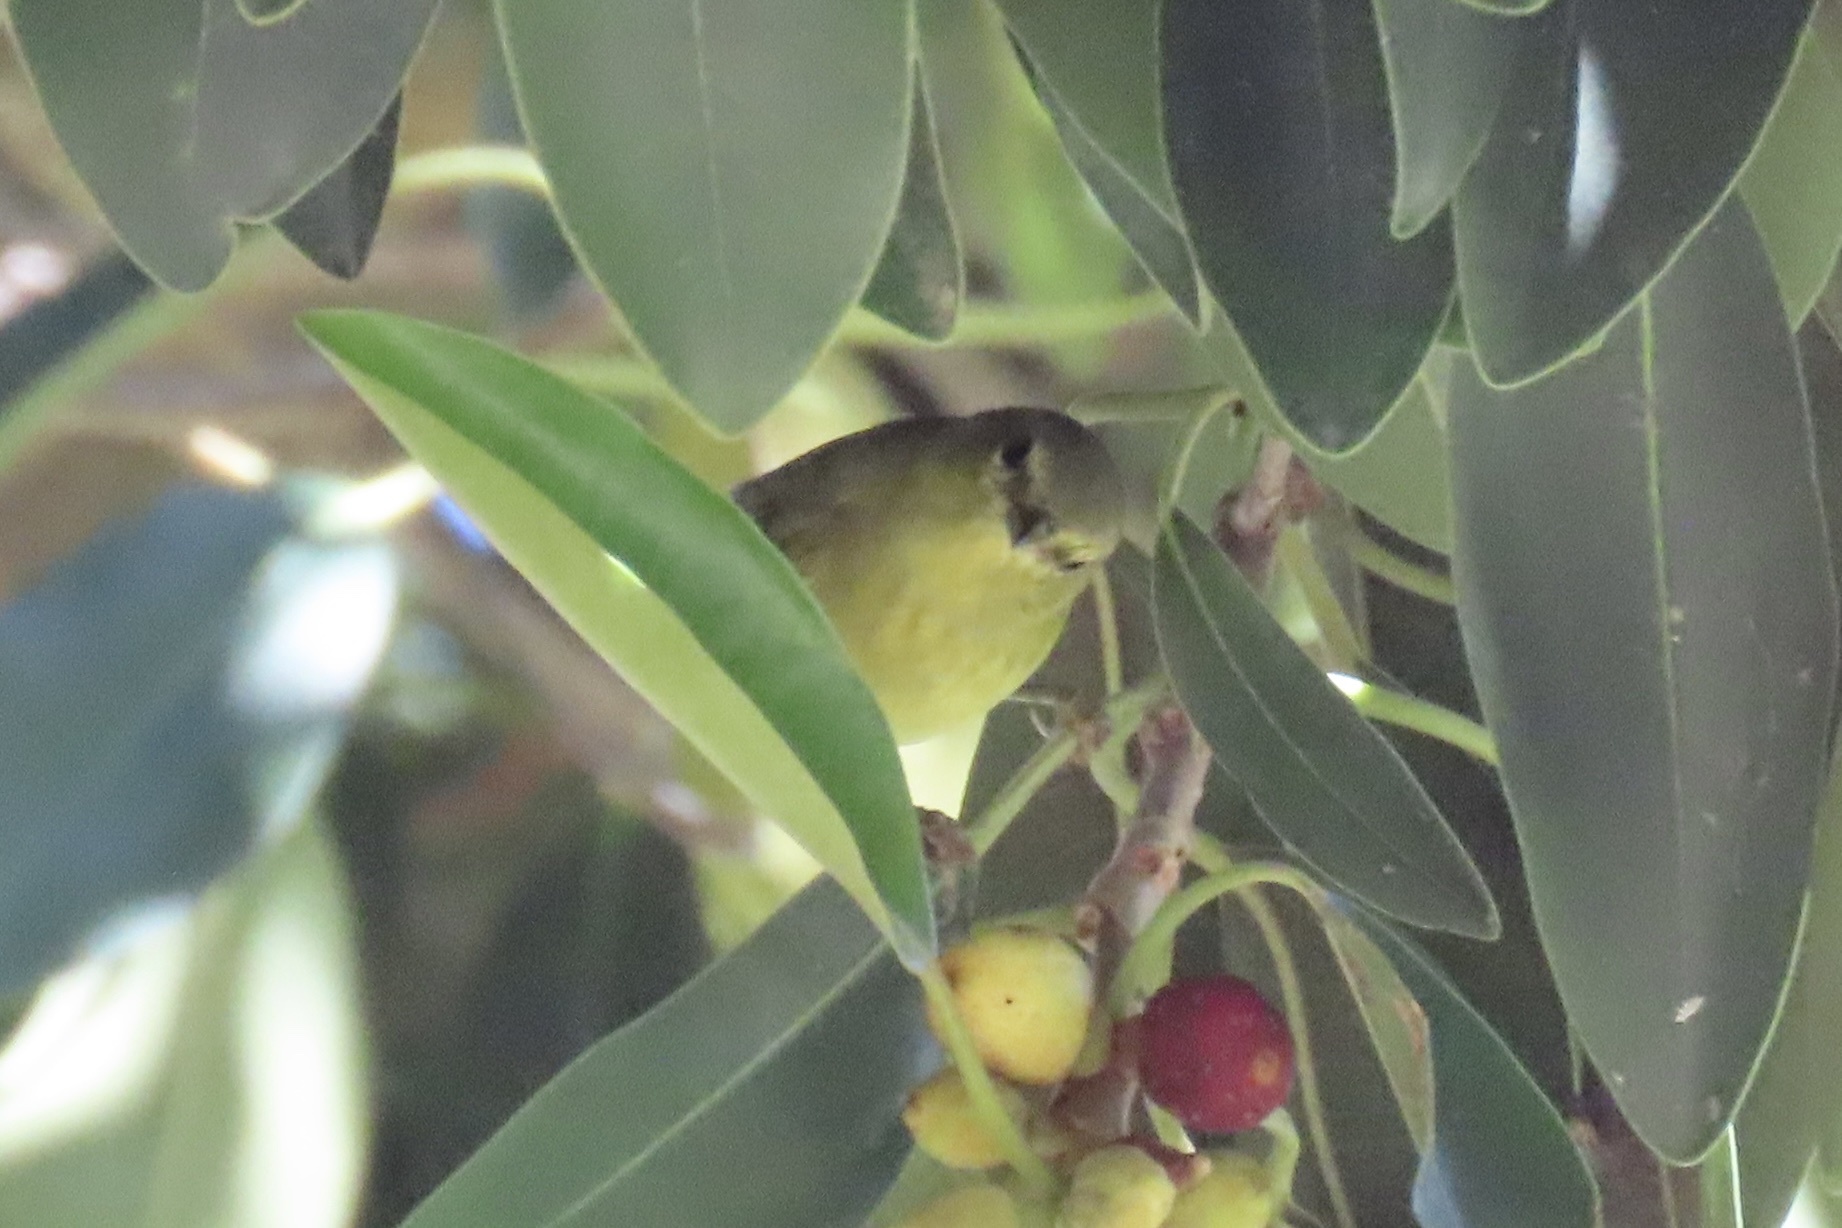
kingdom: Animalia
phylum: Chordata
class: Aves
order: Passeriformes
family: Parulidae
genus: Leiothlypis
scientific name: Leiothlypis celata
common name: Orange-crowned warbler
